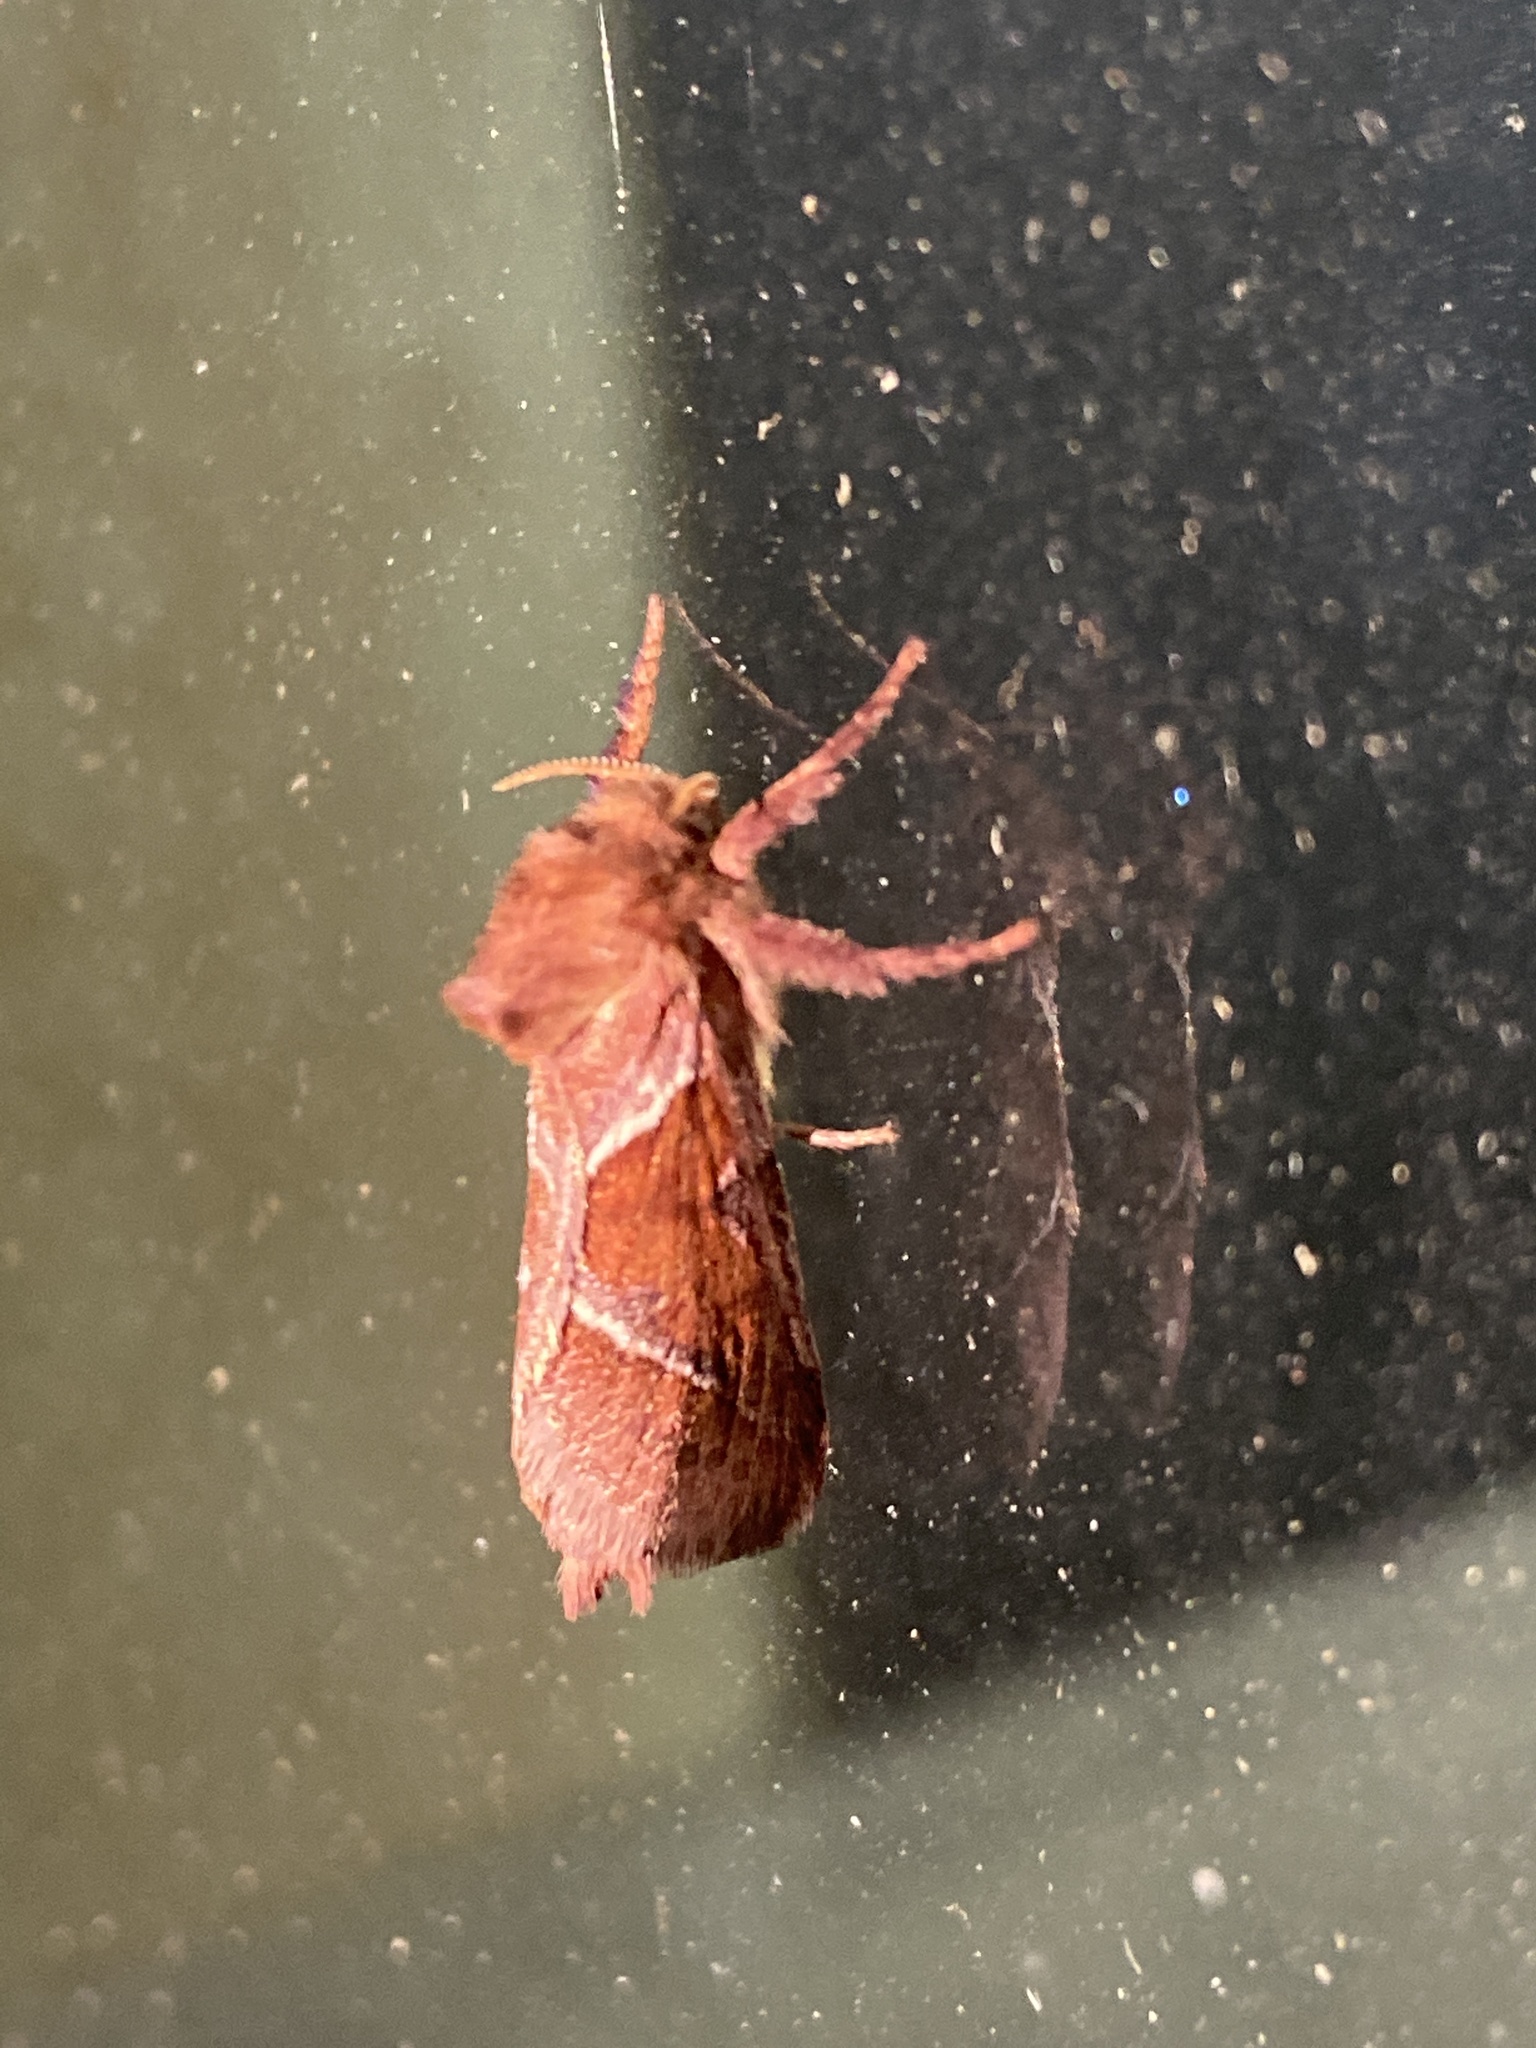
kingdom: Animalia
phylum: Arthropoda
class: Insecta
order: Lepidoptera
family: Hepialidae
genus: Triodia
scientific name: Triodia sylvina
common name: Orange swift
